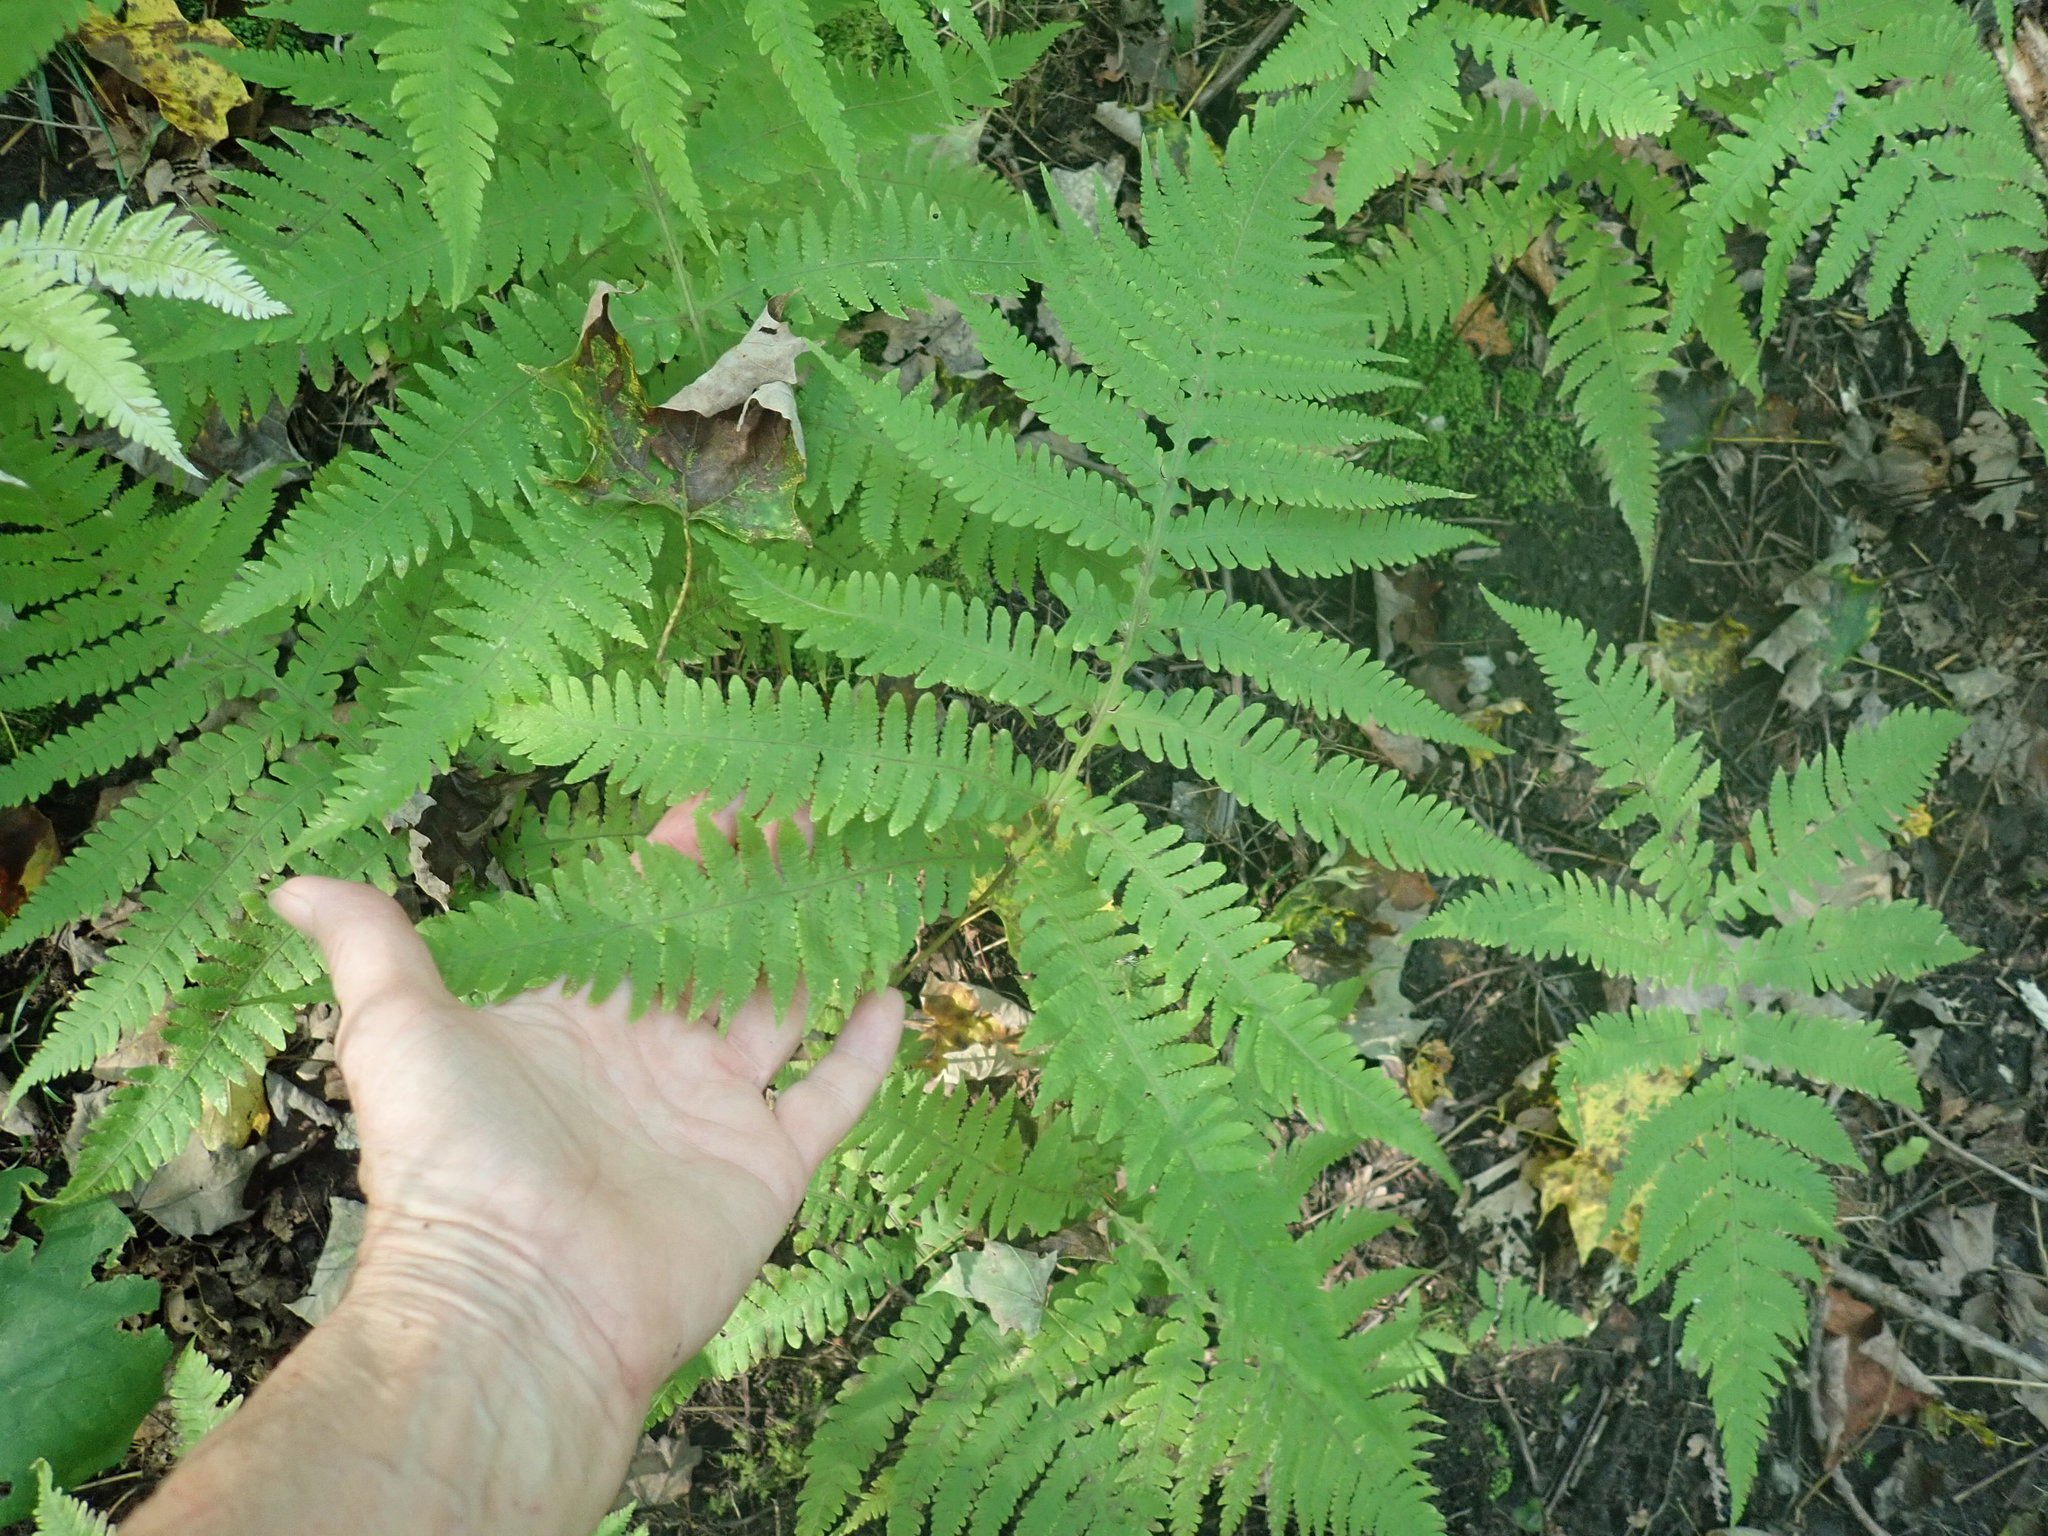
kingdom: Plantae
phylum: Tracheophyta
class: Polypodiopsida
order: Polypodiales
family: Thelypteridaceae
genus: Phegopteris
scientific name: Phegopteris hexagonoptera
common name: Broad beech fern
